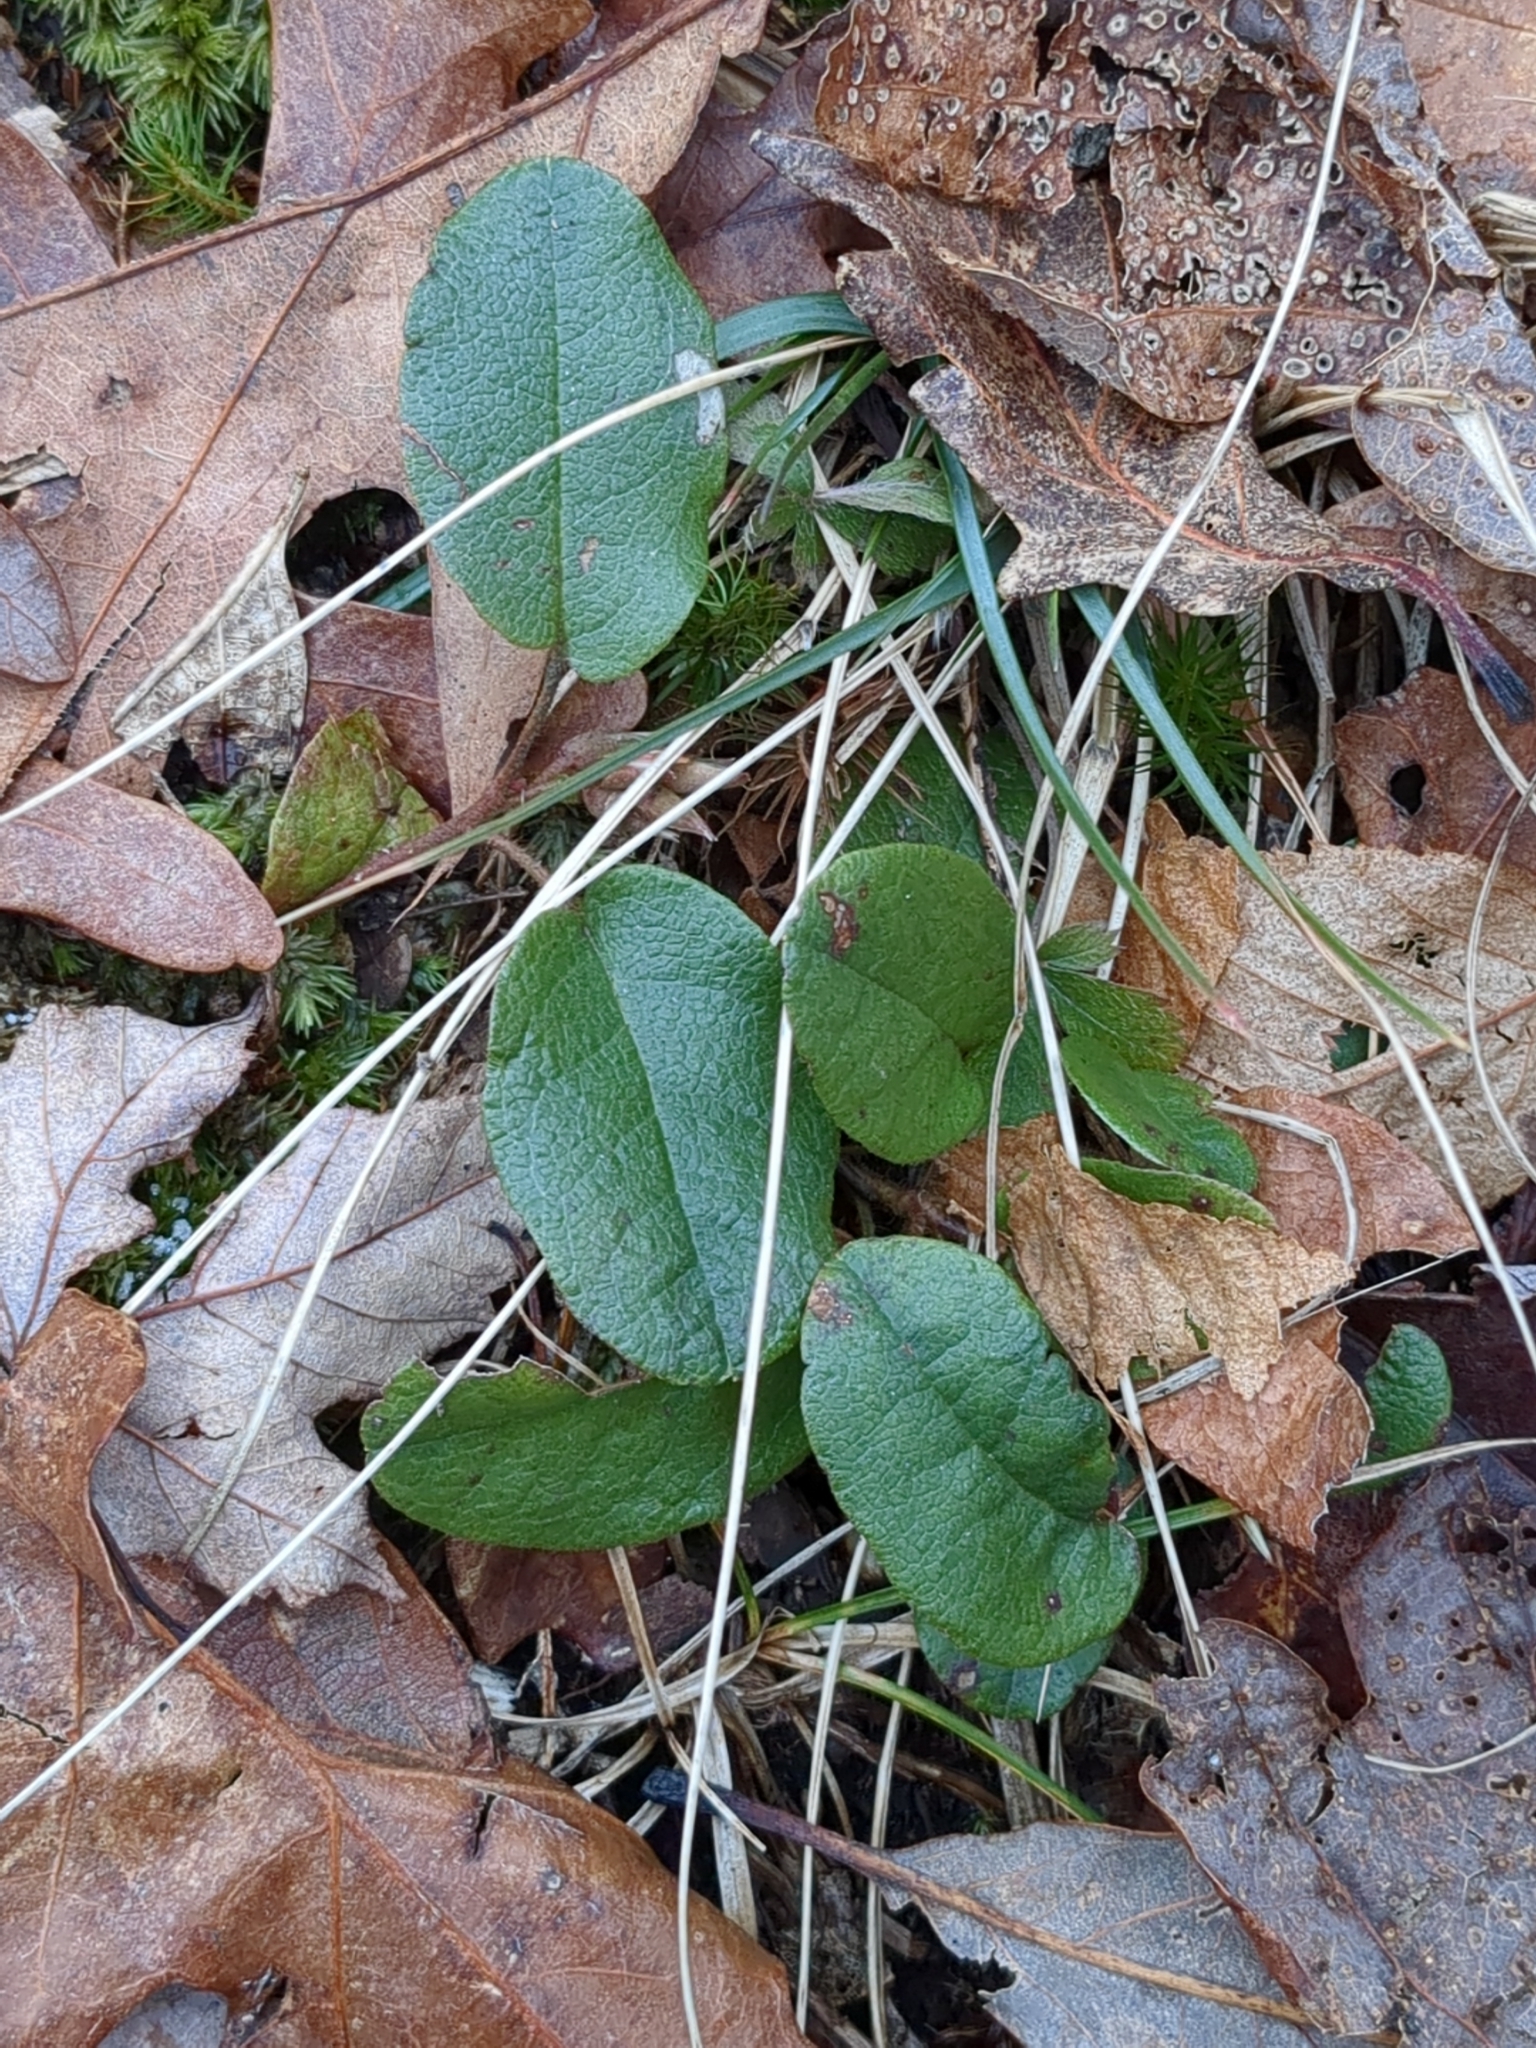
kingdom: Plantae
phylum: Tracheophyta
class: Magnoliopsida
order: Ericales
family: Ericaceae
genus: Epigaea
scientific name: Epigaea repens
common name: Gravelroot
